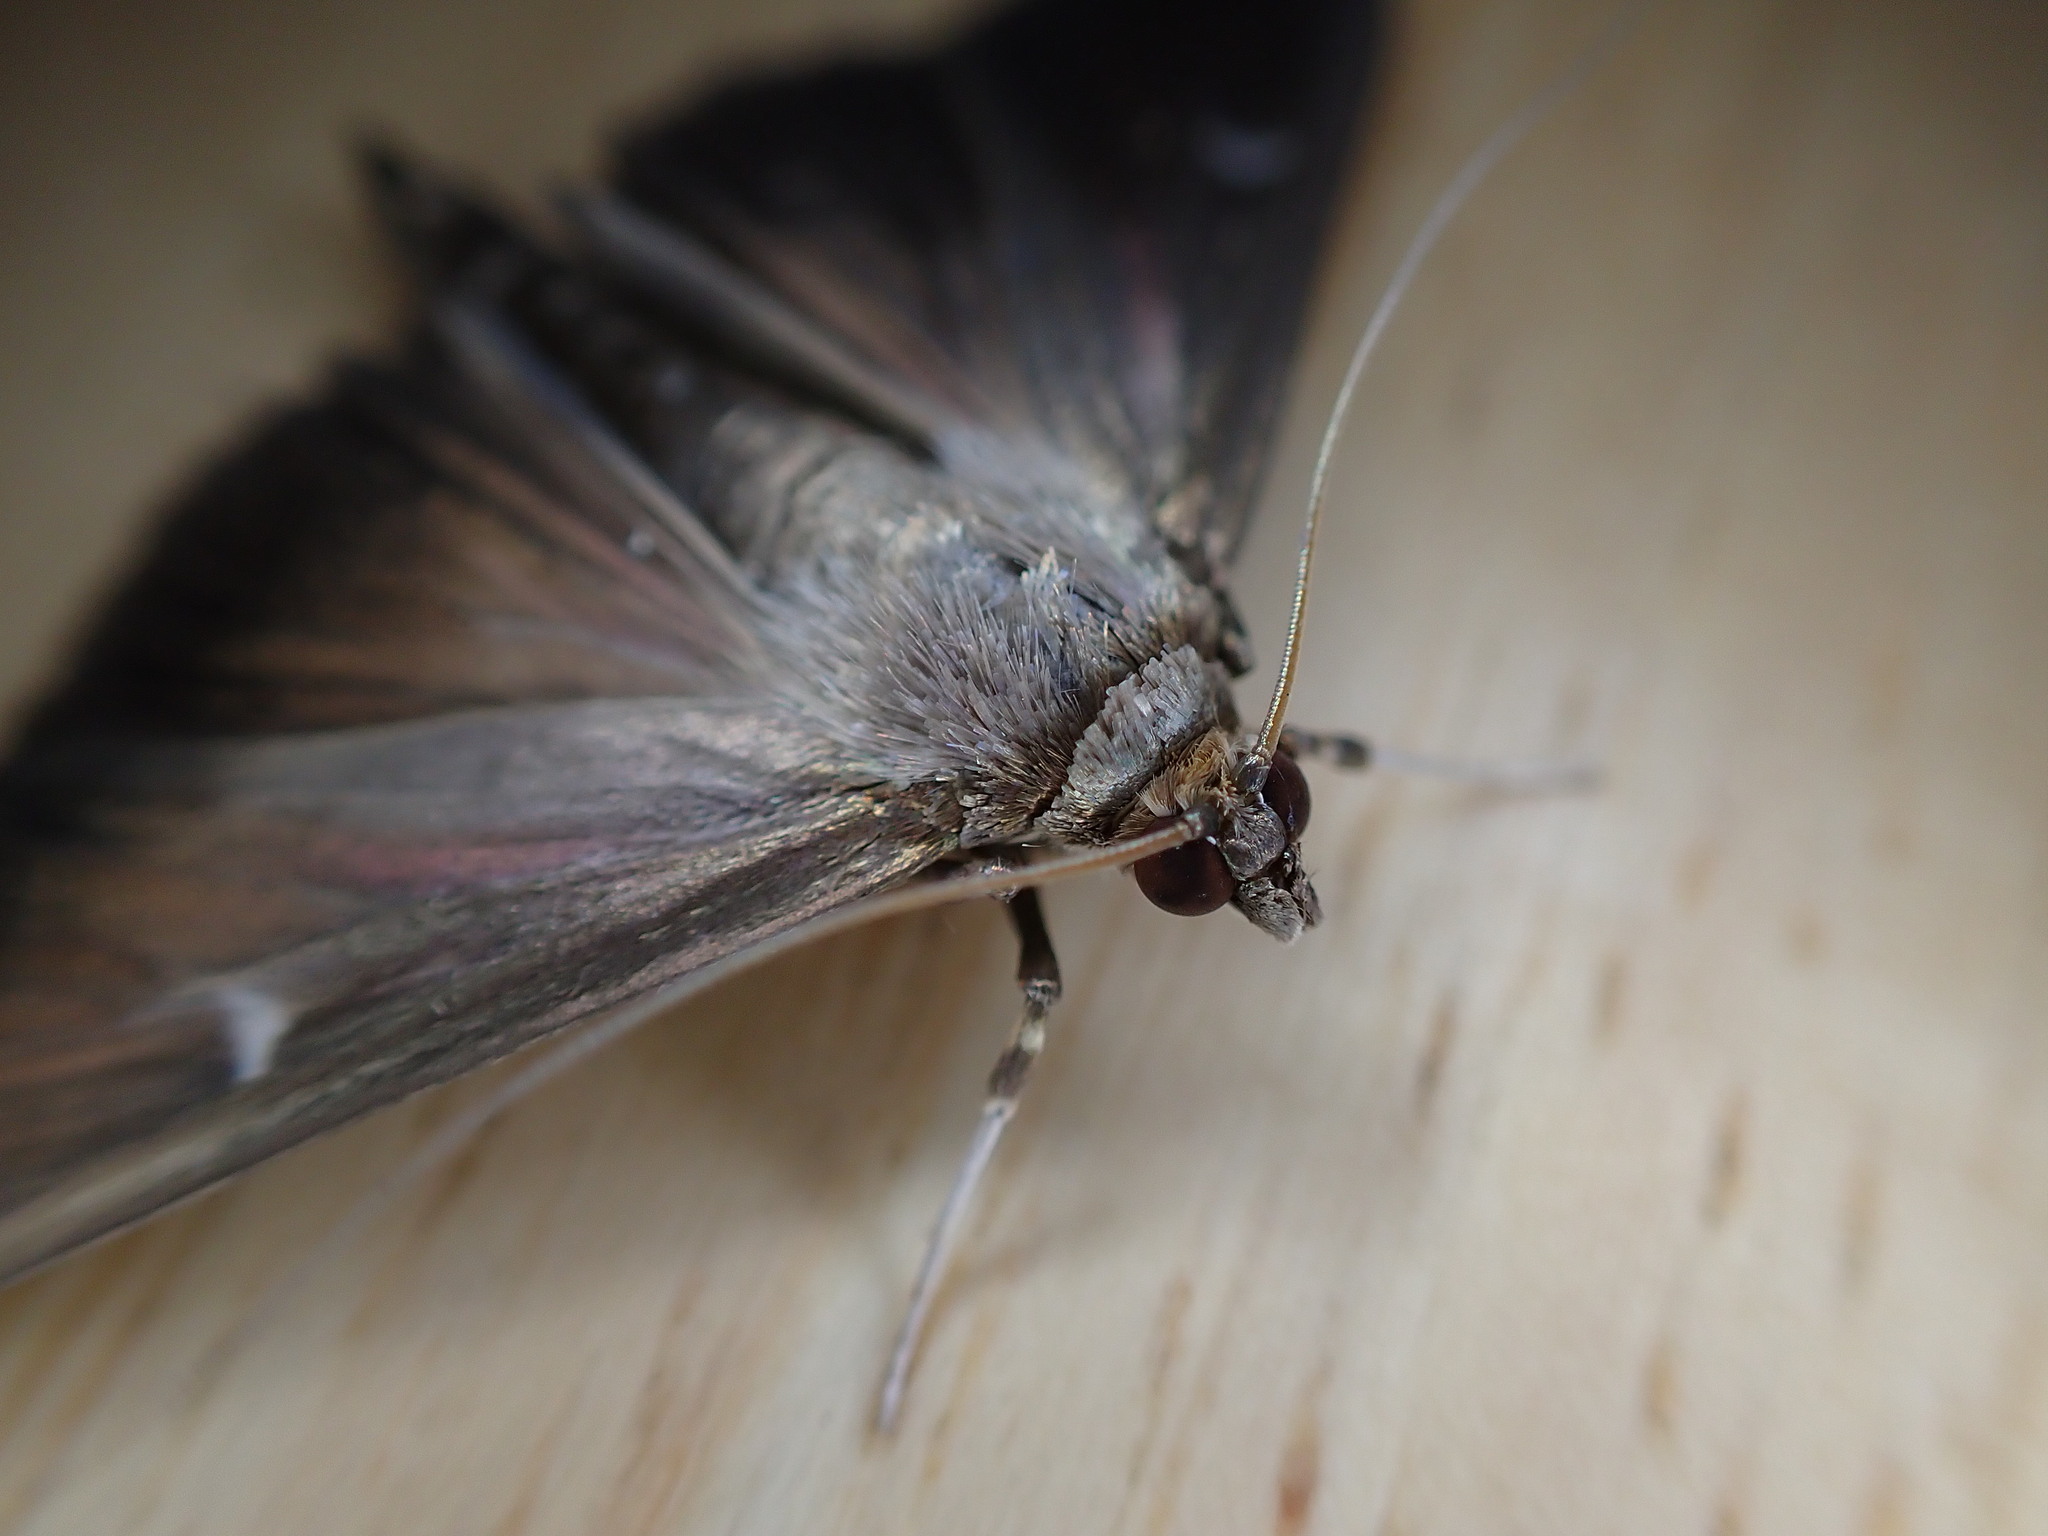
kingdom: Animalia
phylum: Arthropoda
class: Insecta
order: Lepidoptera
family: Crambidae
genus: Cydalima
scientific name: Cydalima perspectalis
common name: Box tree moth
